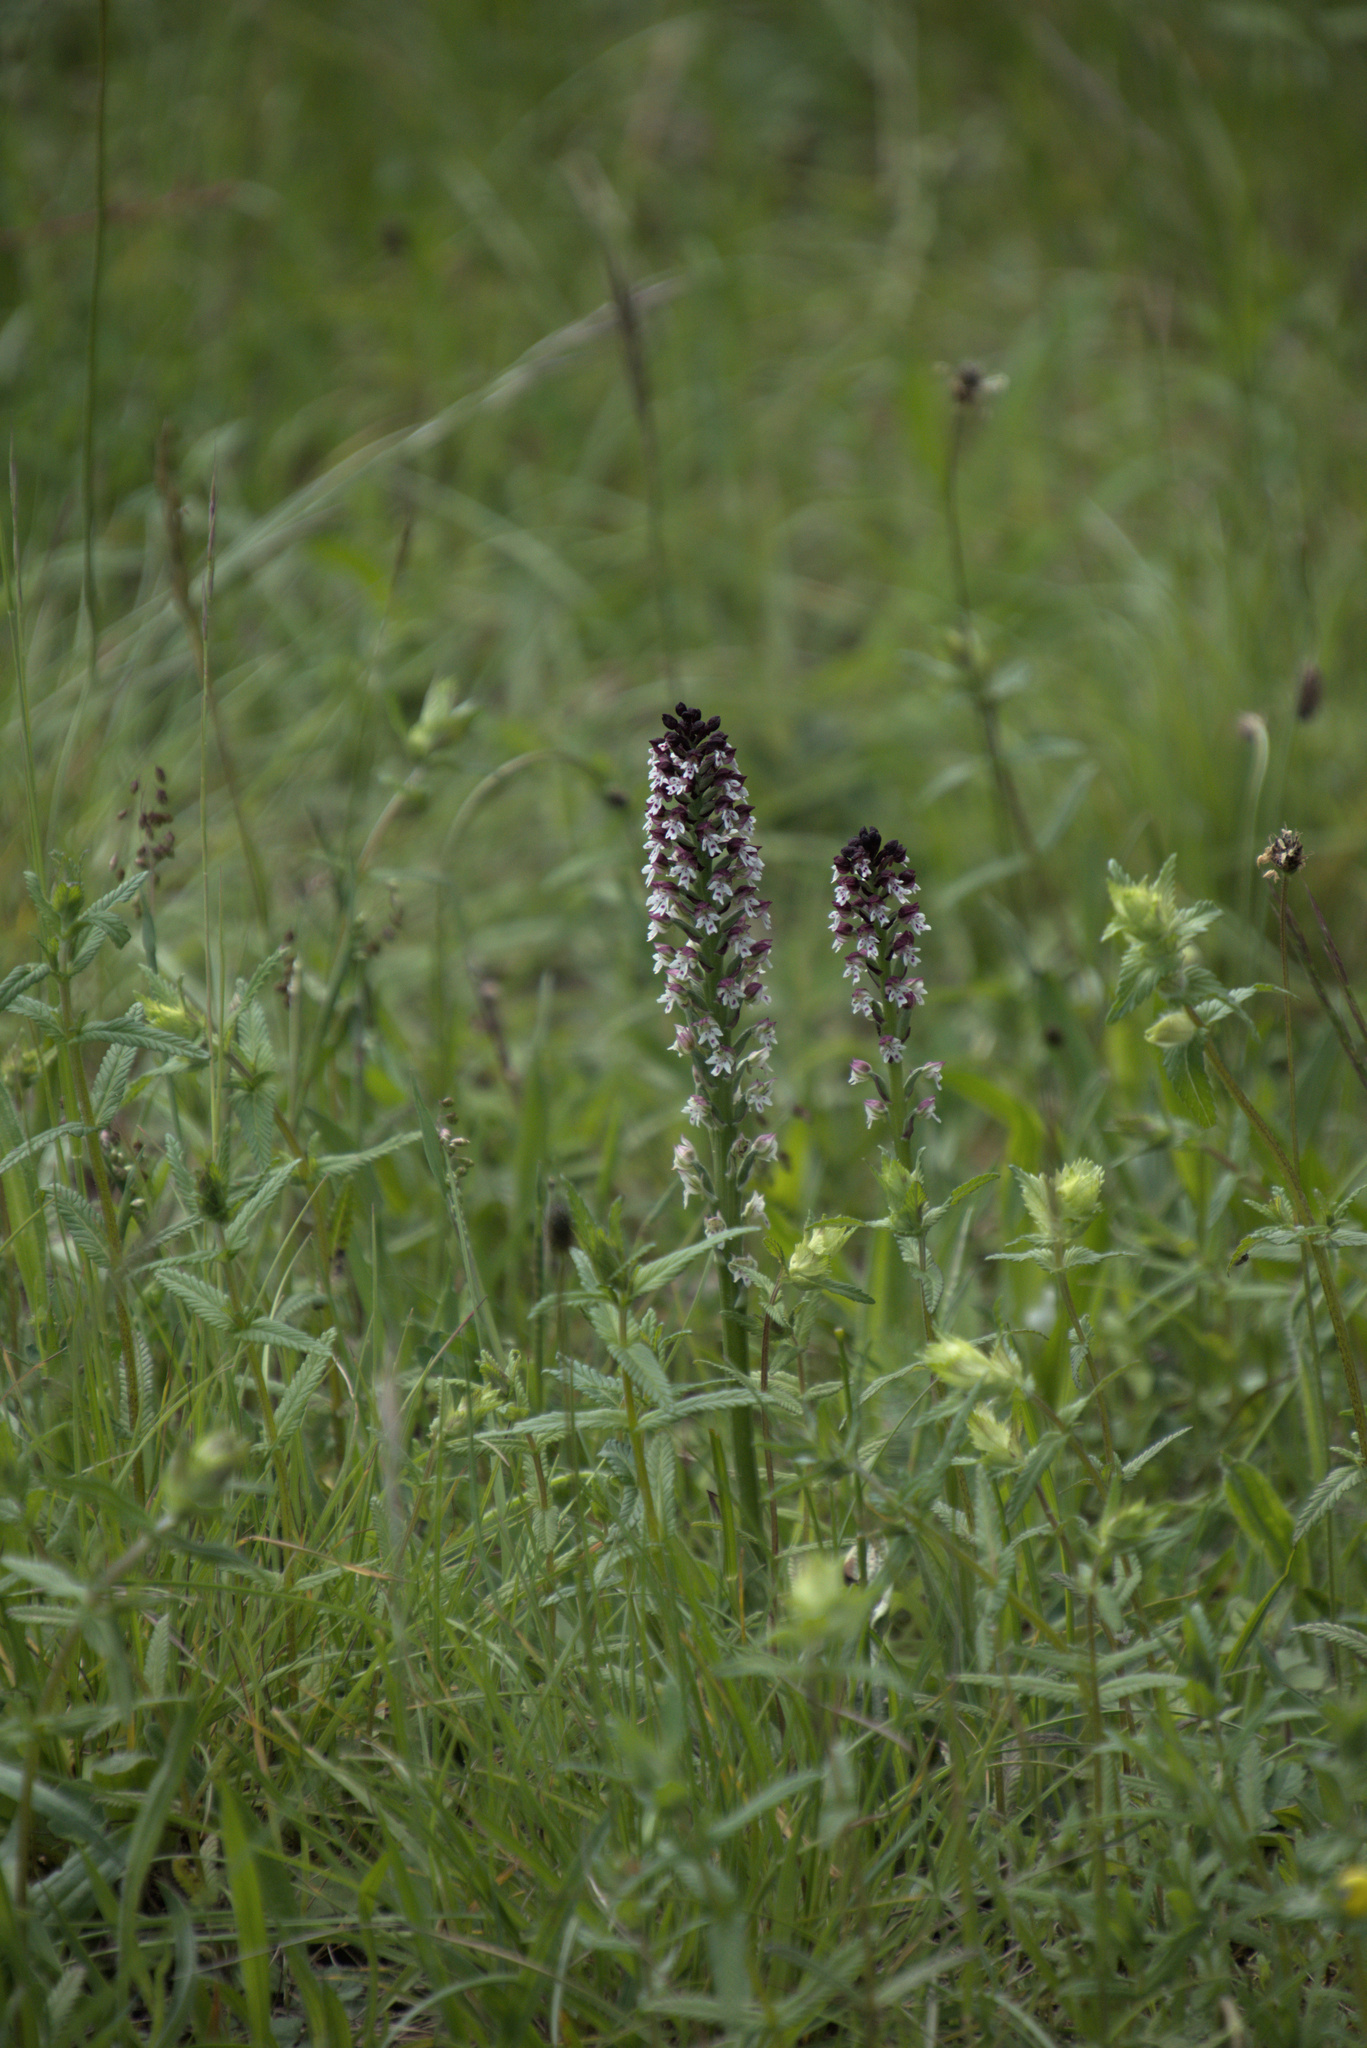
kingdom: Plantae
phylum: Tracheophyta
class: Liliopsida
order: Asparagales
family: Orchidaceae
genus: Neotinea
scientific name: Neotinea ustulata
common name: Burnt orchid
